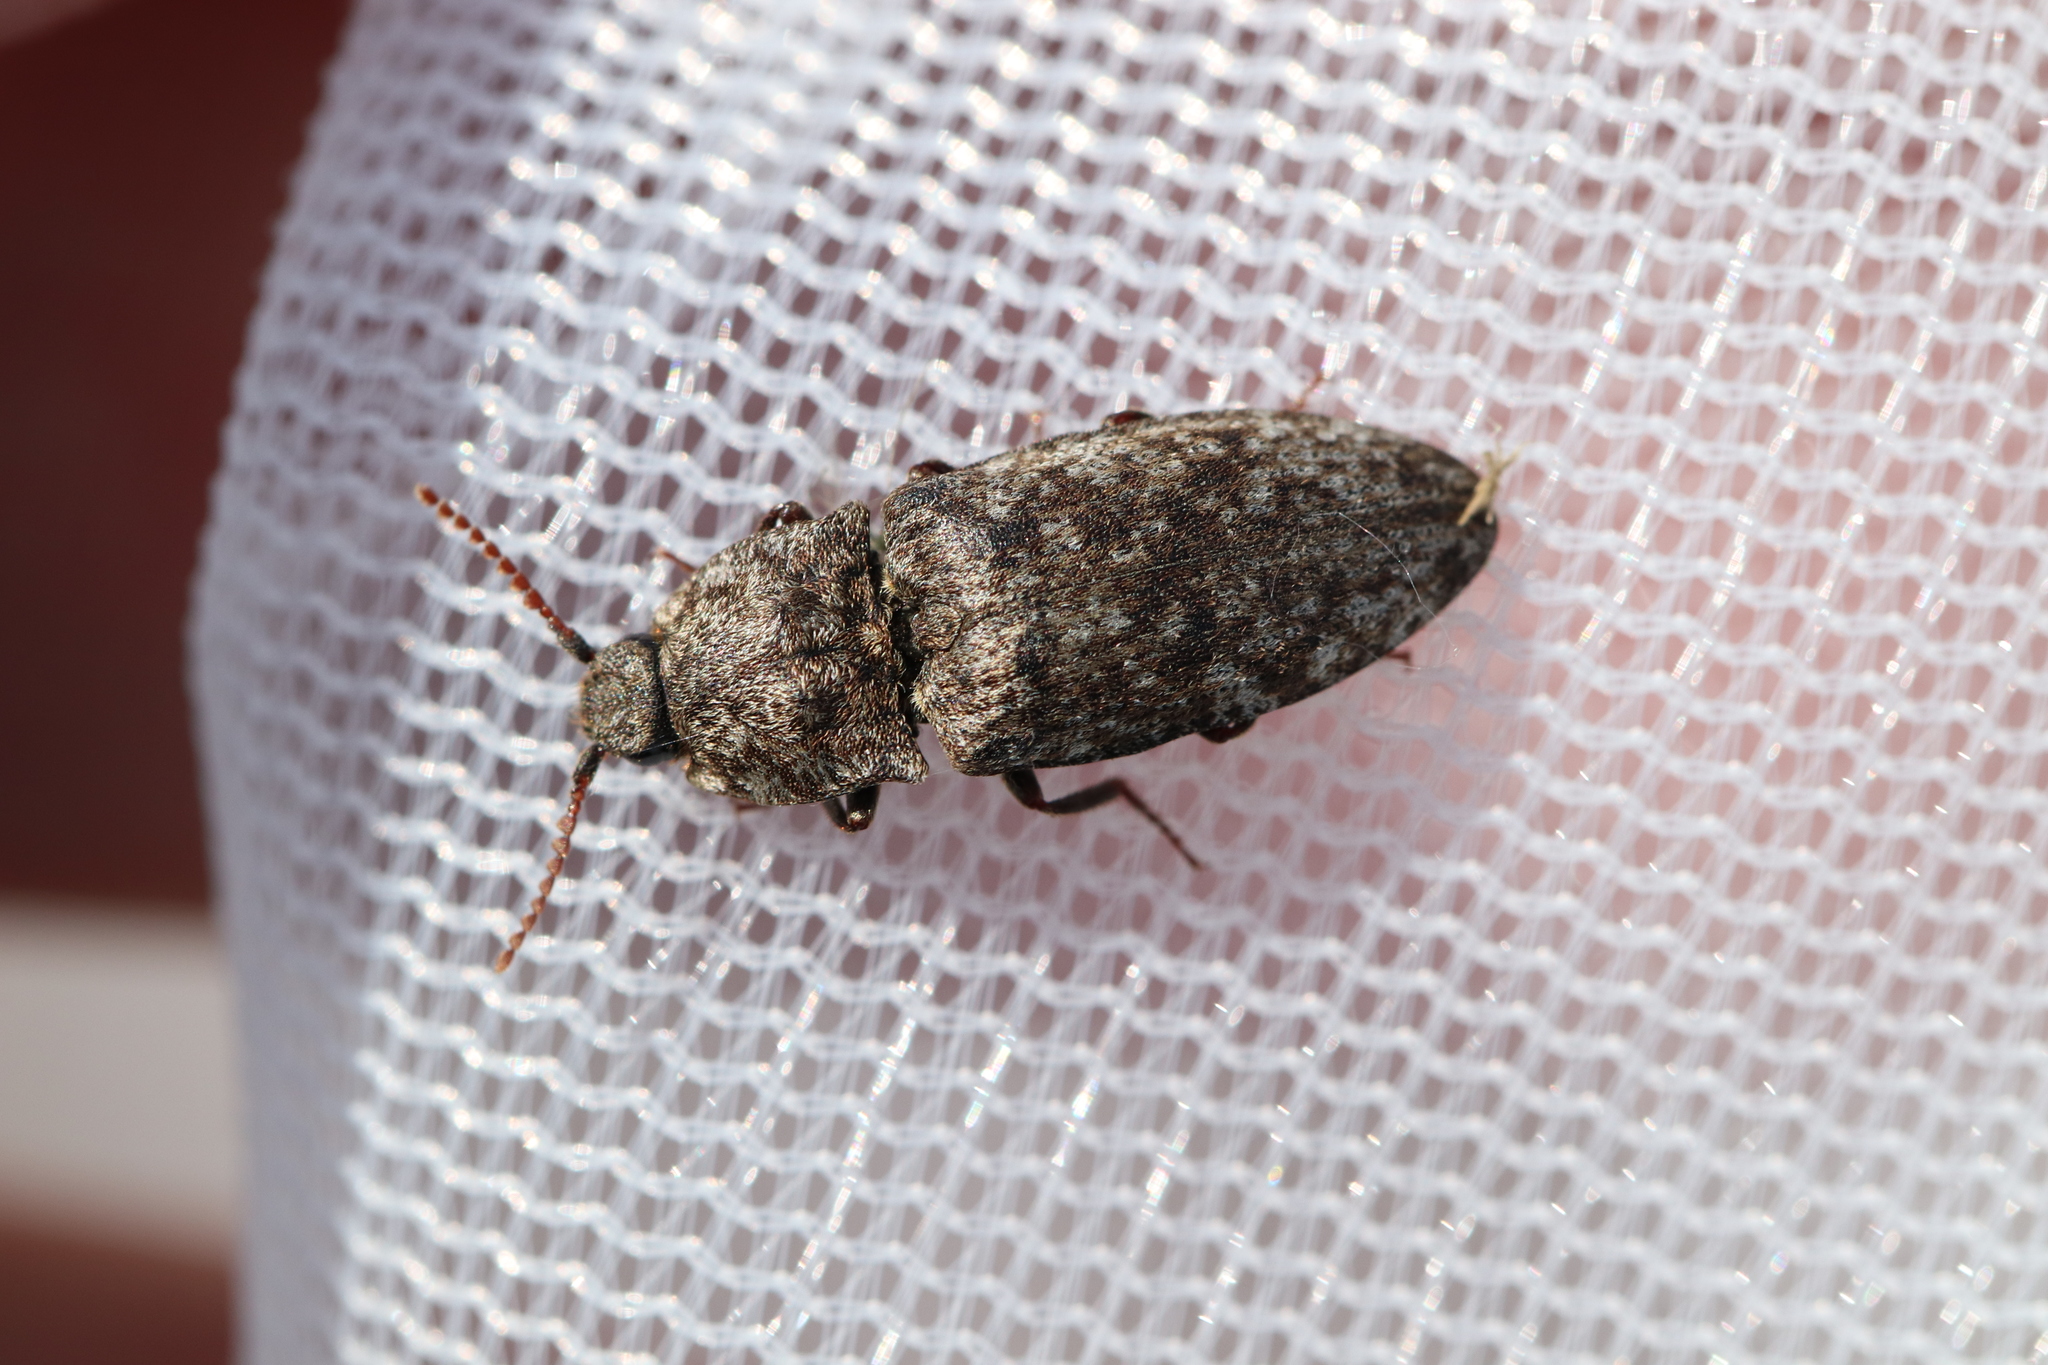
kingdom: Animalia
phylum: Arthropoda
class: Insecta
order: Coleoptera
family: Elateridae
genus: Agrypnus
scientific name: Agrypnus murinus
